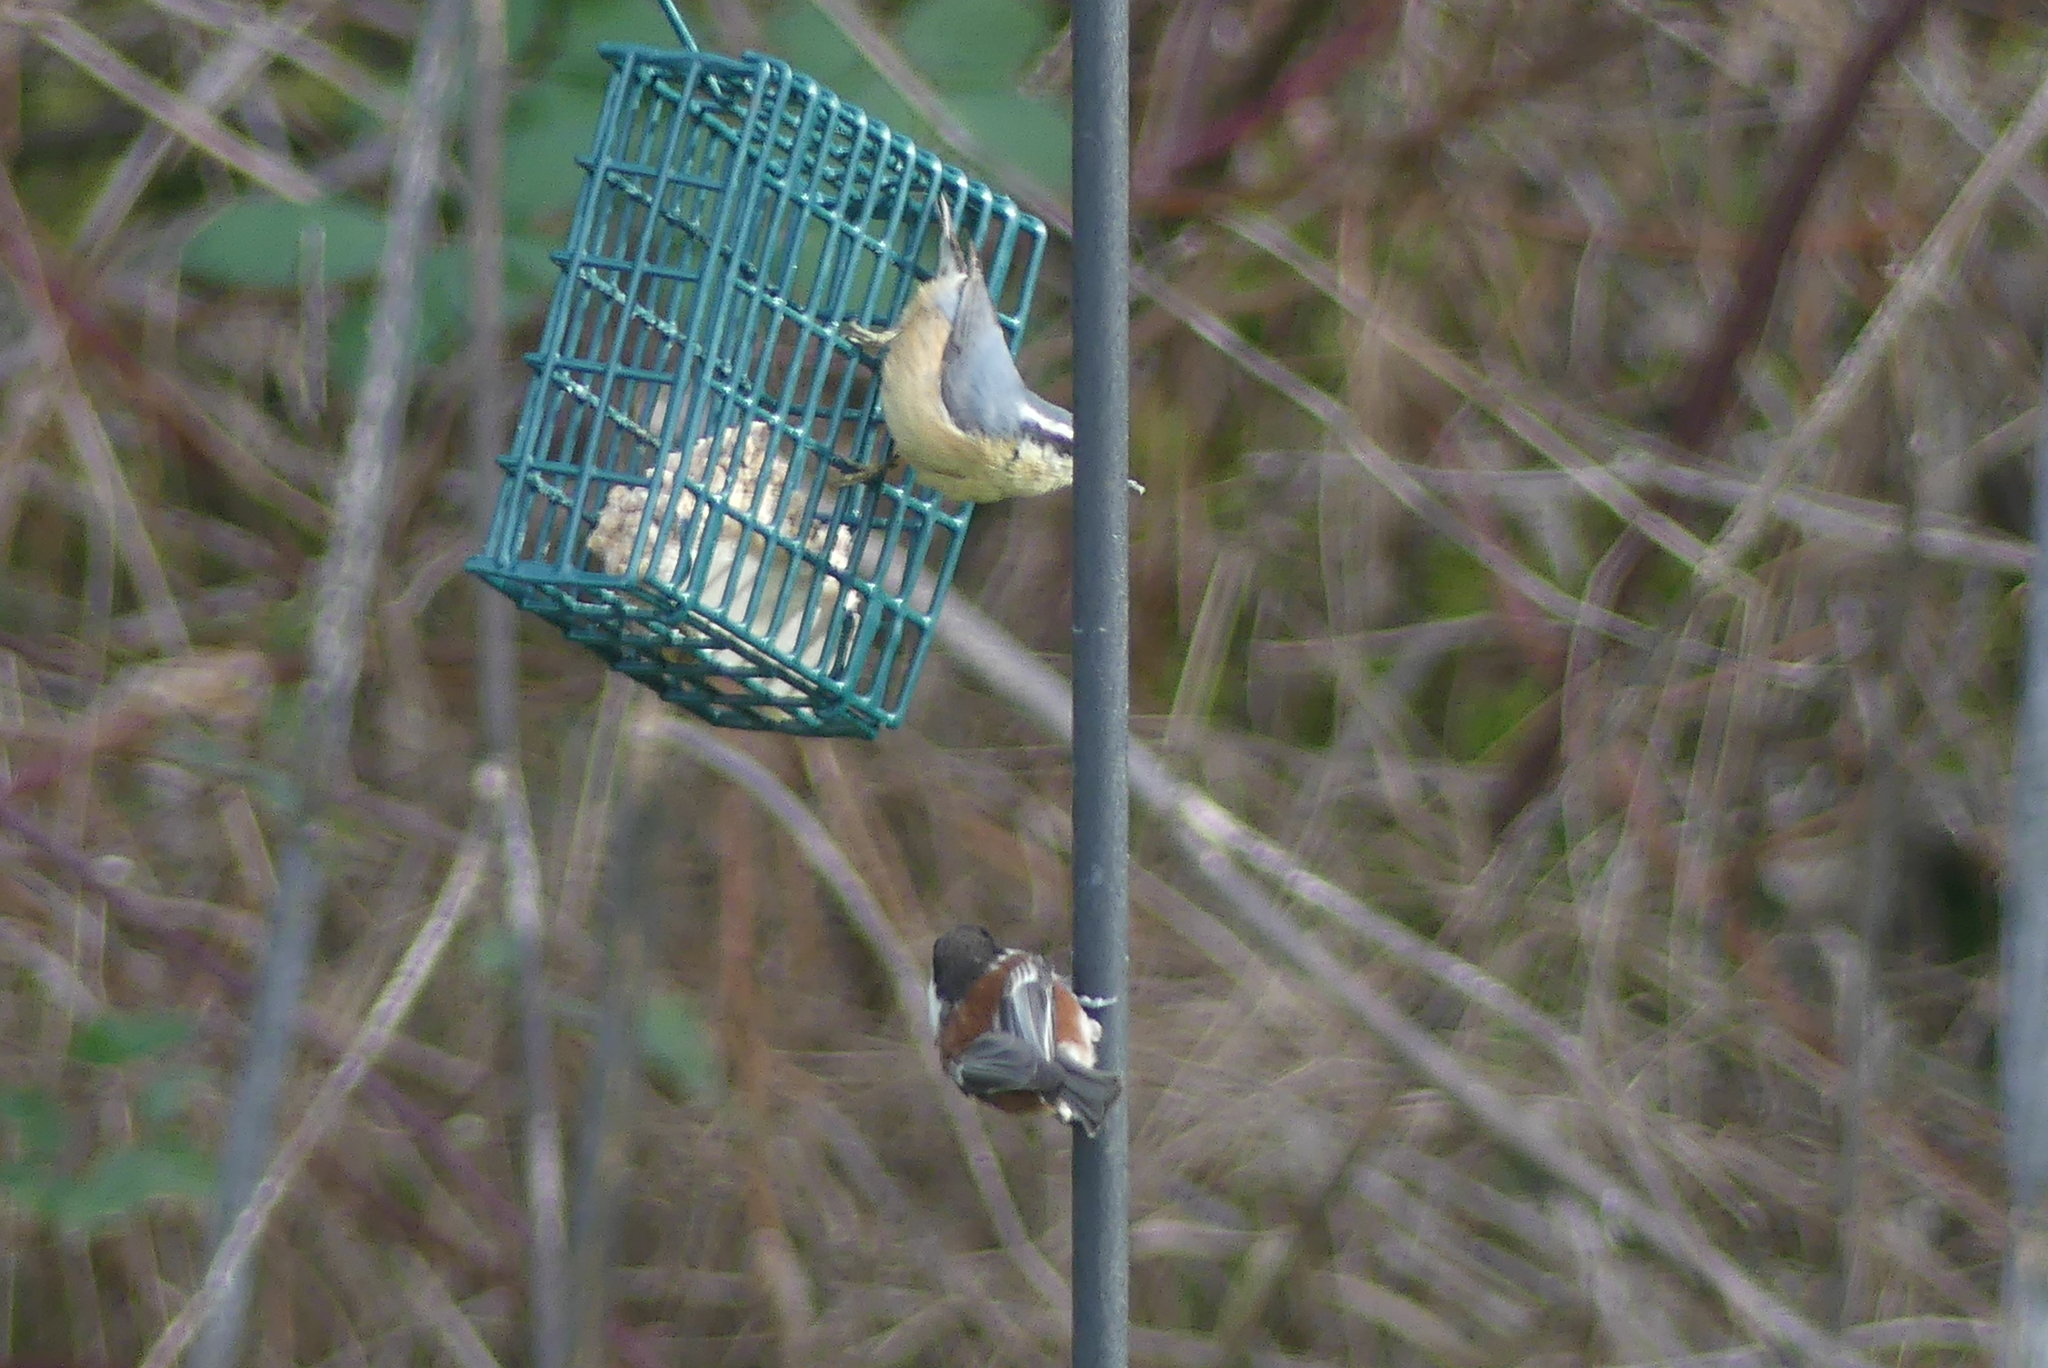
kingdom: Animalia
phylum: Chordata
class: Aves
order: Passeriformes
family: Paridae
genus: Poecile
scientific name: Poecile rufescens
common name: Chestnut-backed chickadee
